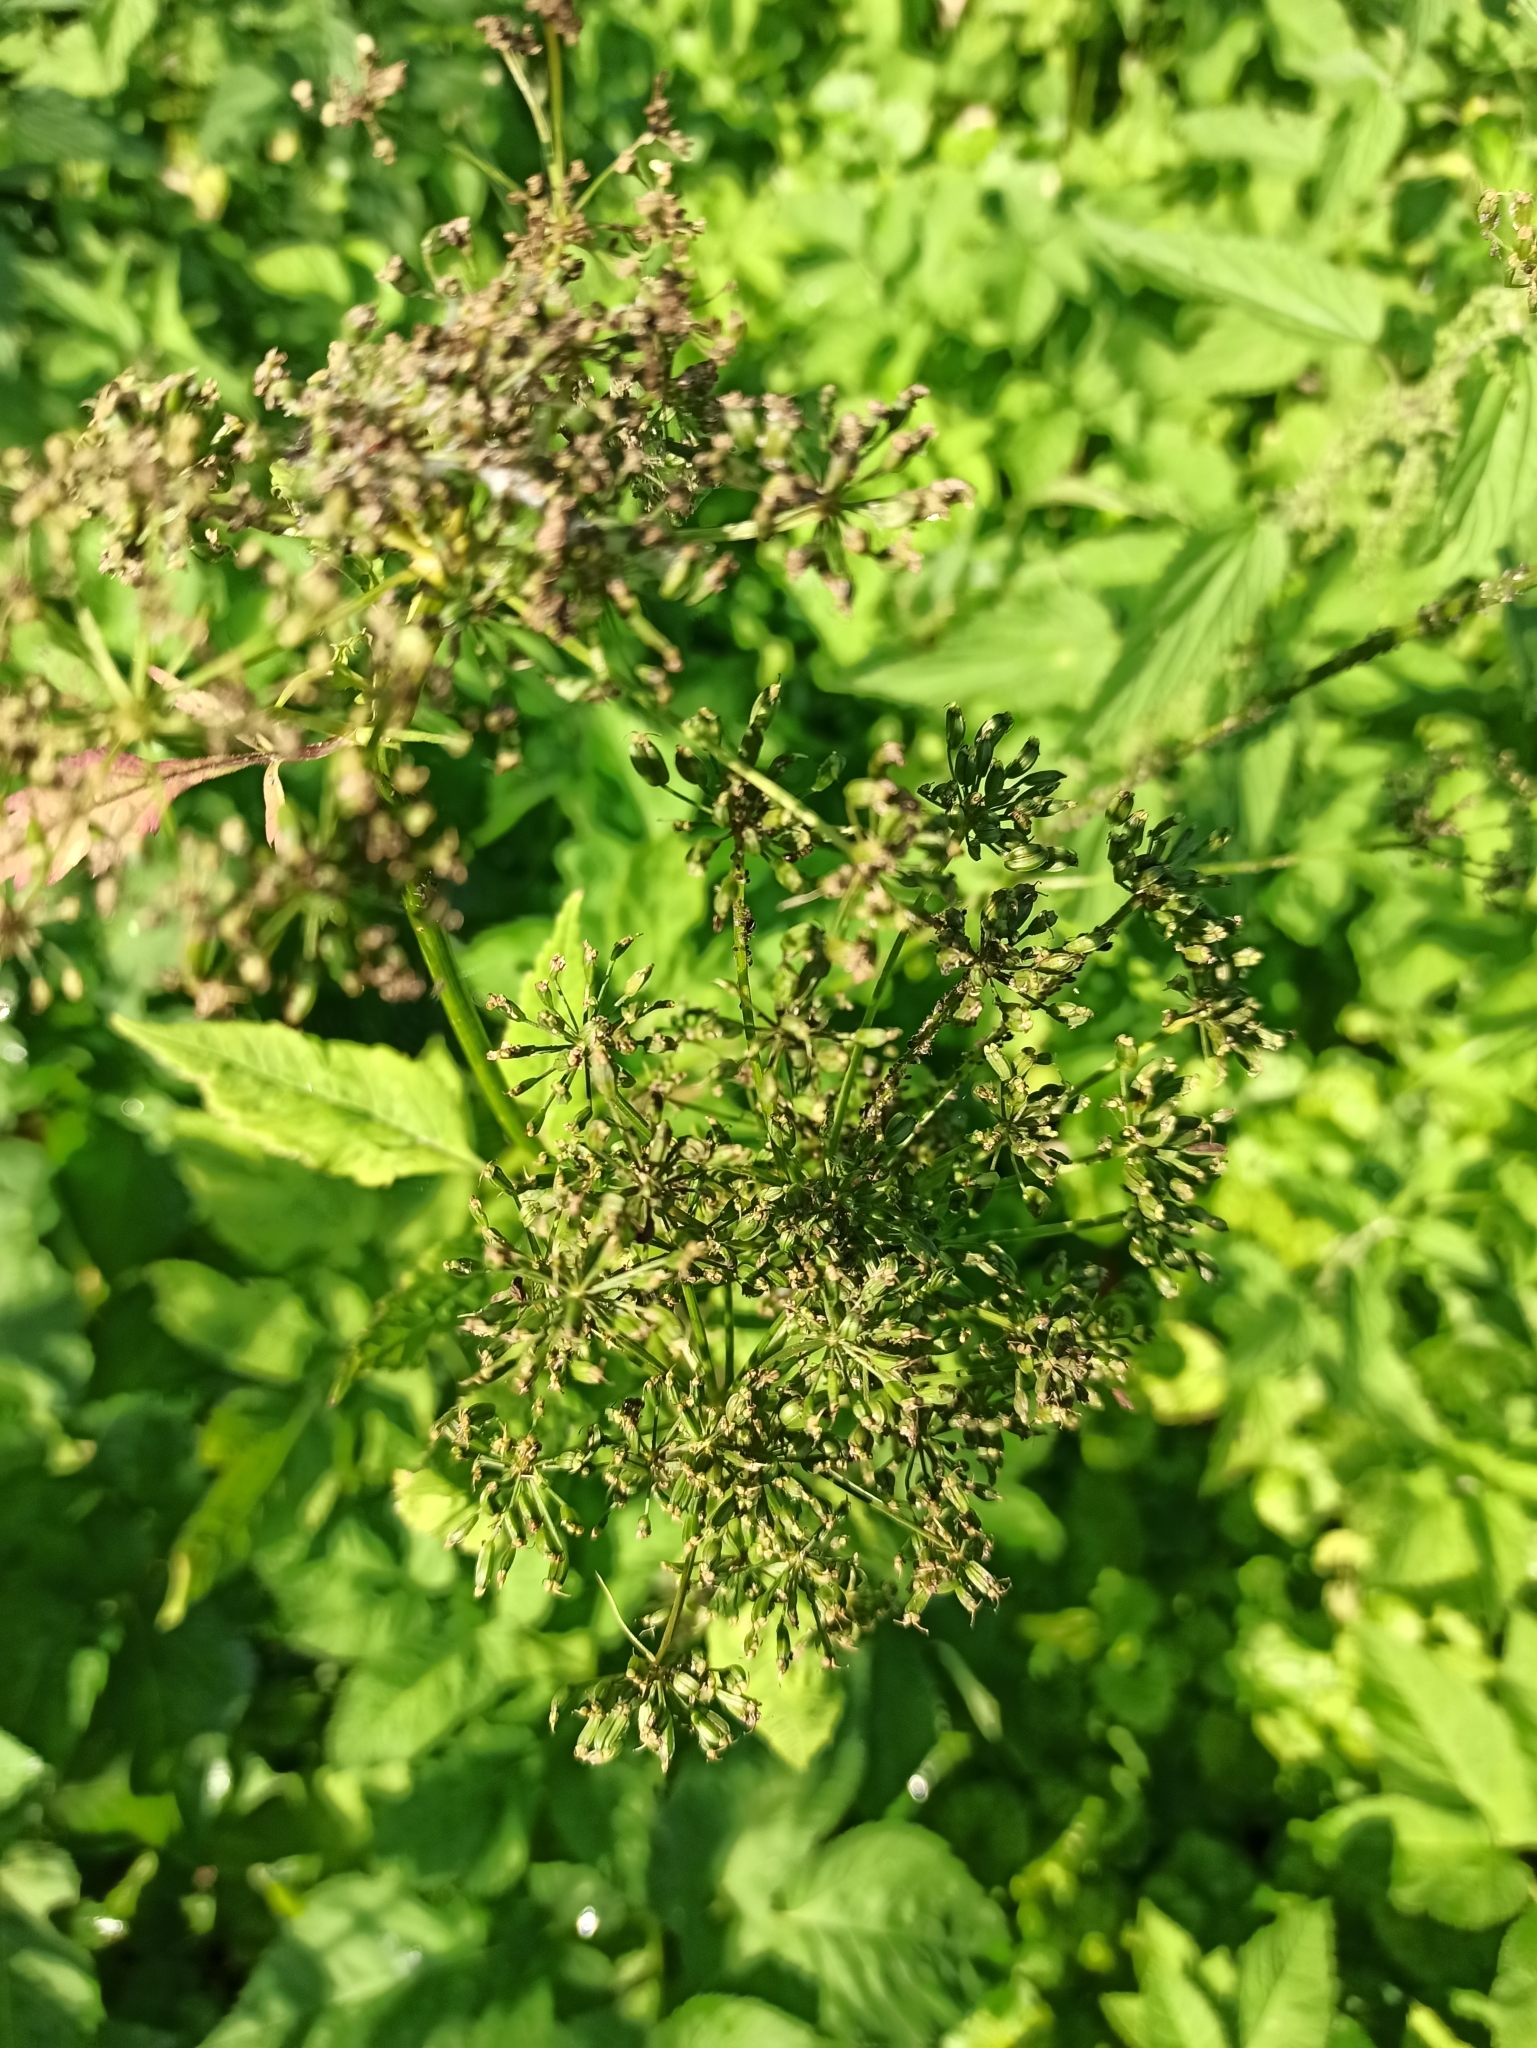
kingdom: Plantae
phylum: Tracheophyta
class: Magnoliopsida
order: Apiales
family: Apiaceae
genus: Aegopodium
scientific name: Aegopodium podagraria
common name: Ground-elder
